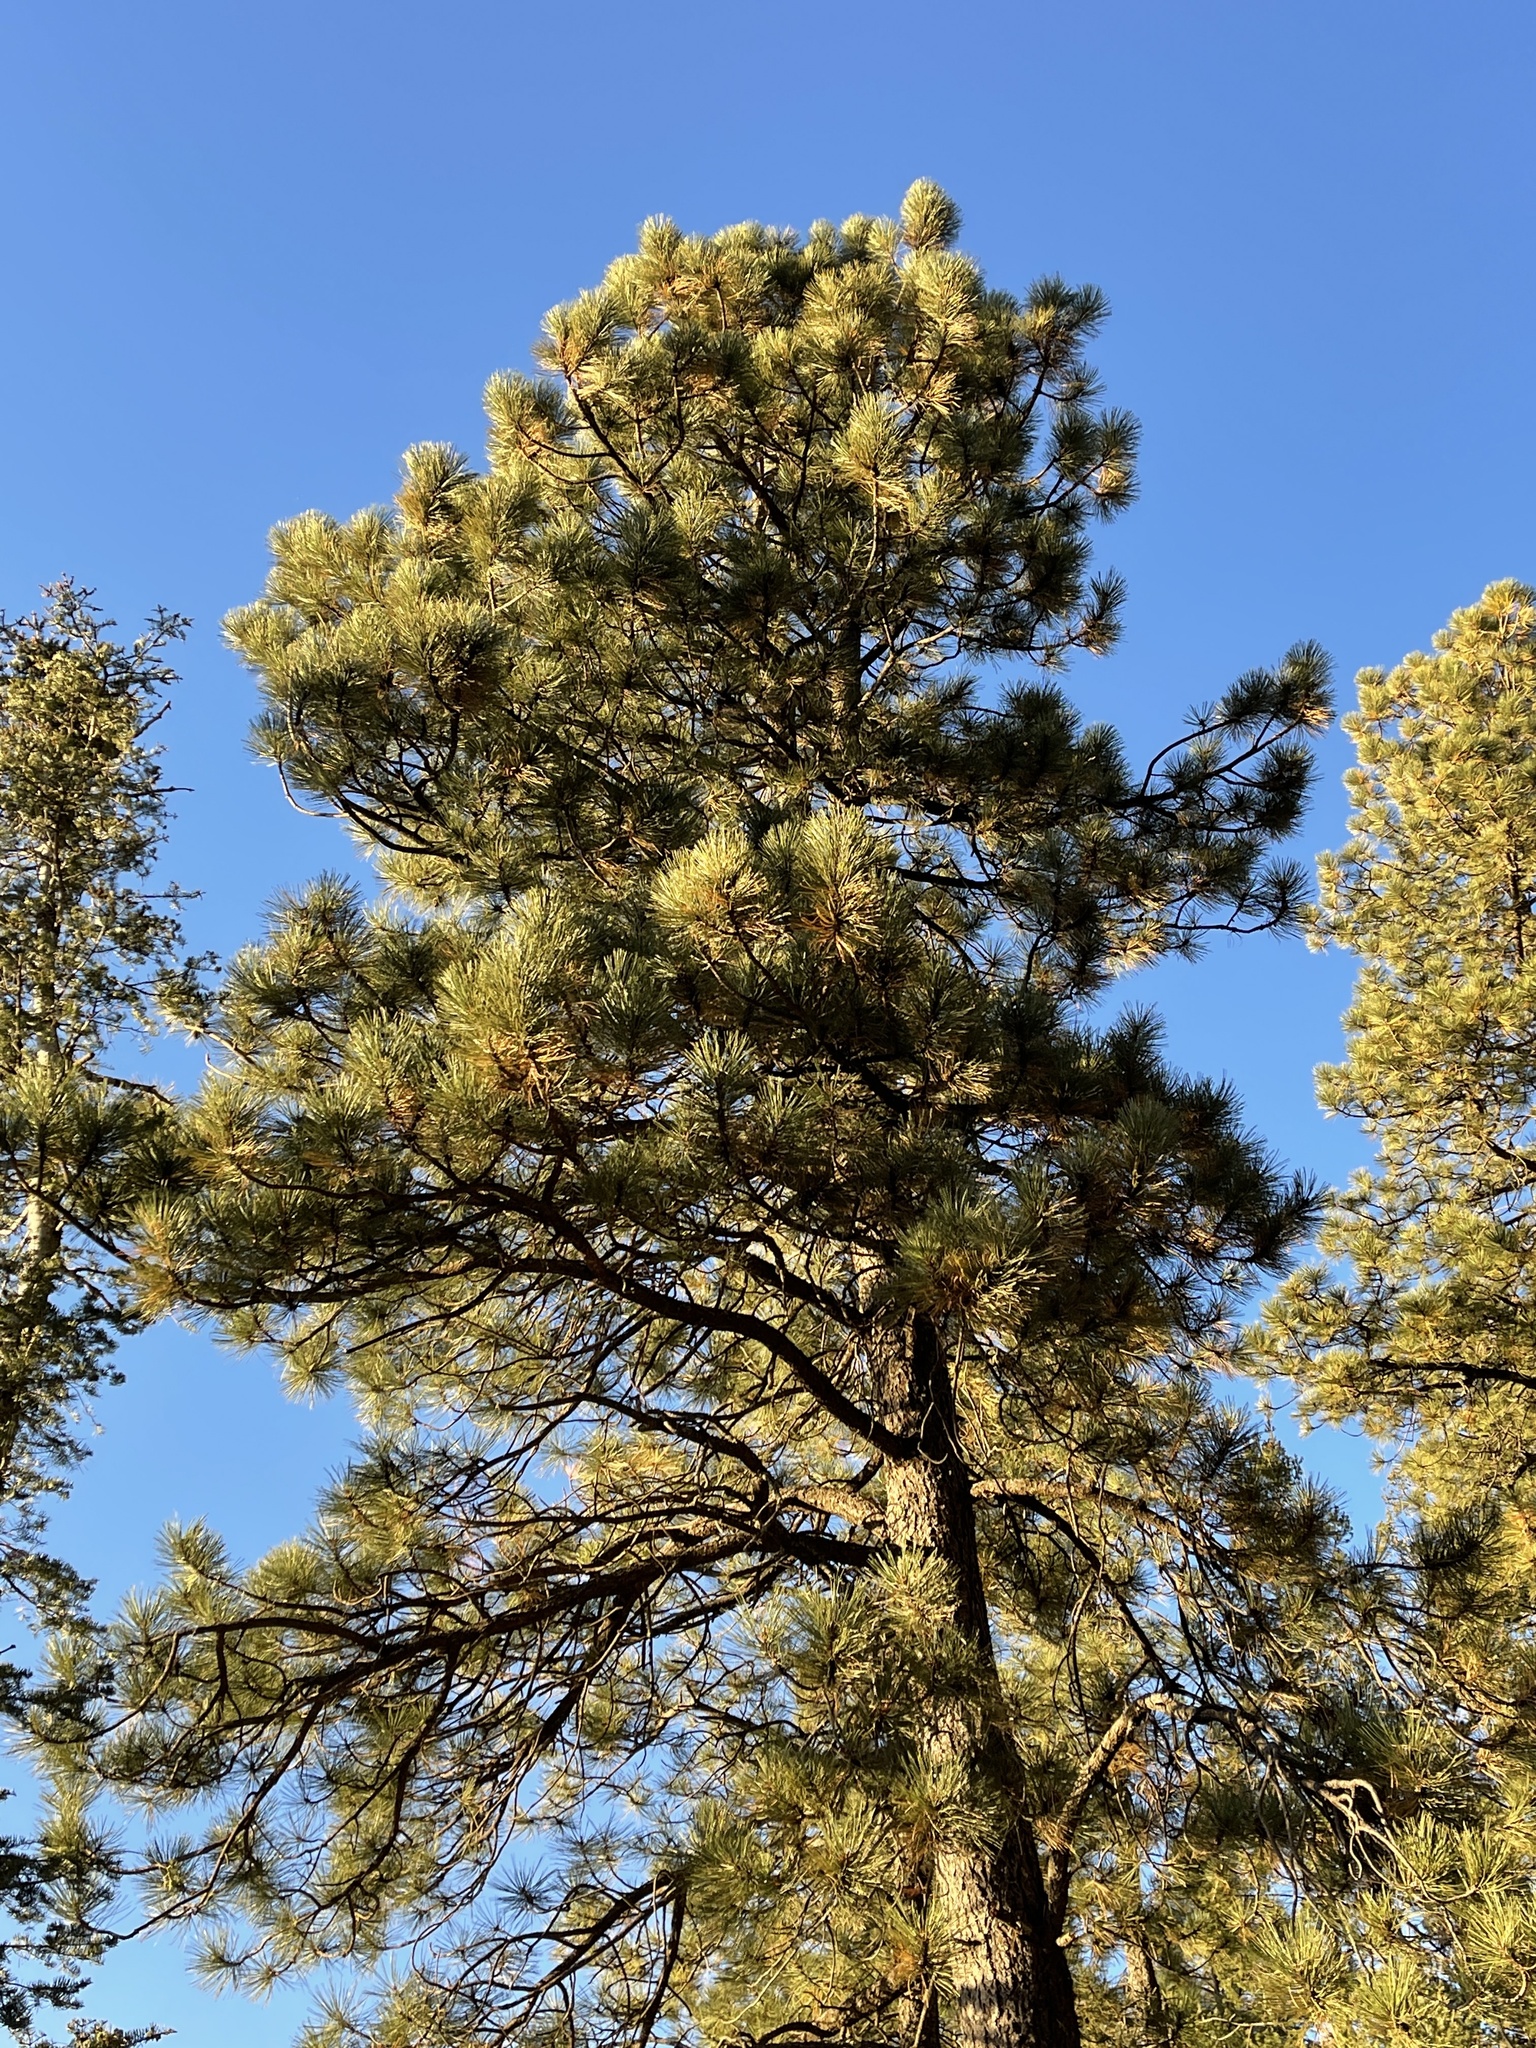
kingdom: Plantae
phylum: Tracheophyta
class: Pinopsida
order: Pinales
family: Pinaceae
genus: Pinus
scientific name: Pinus ponderosa
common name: Western yellow-pine
